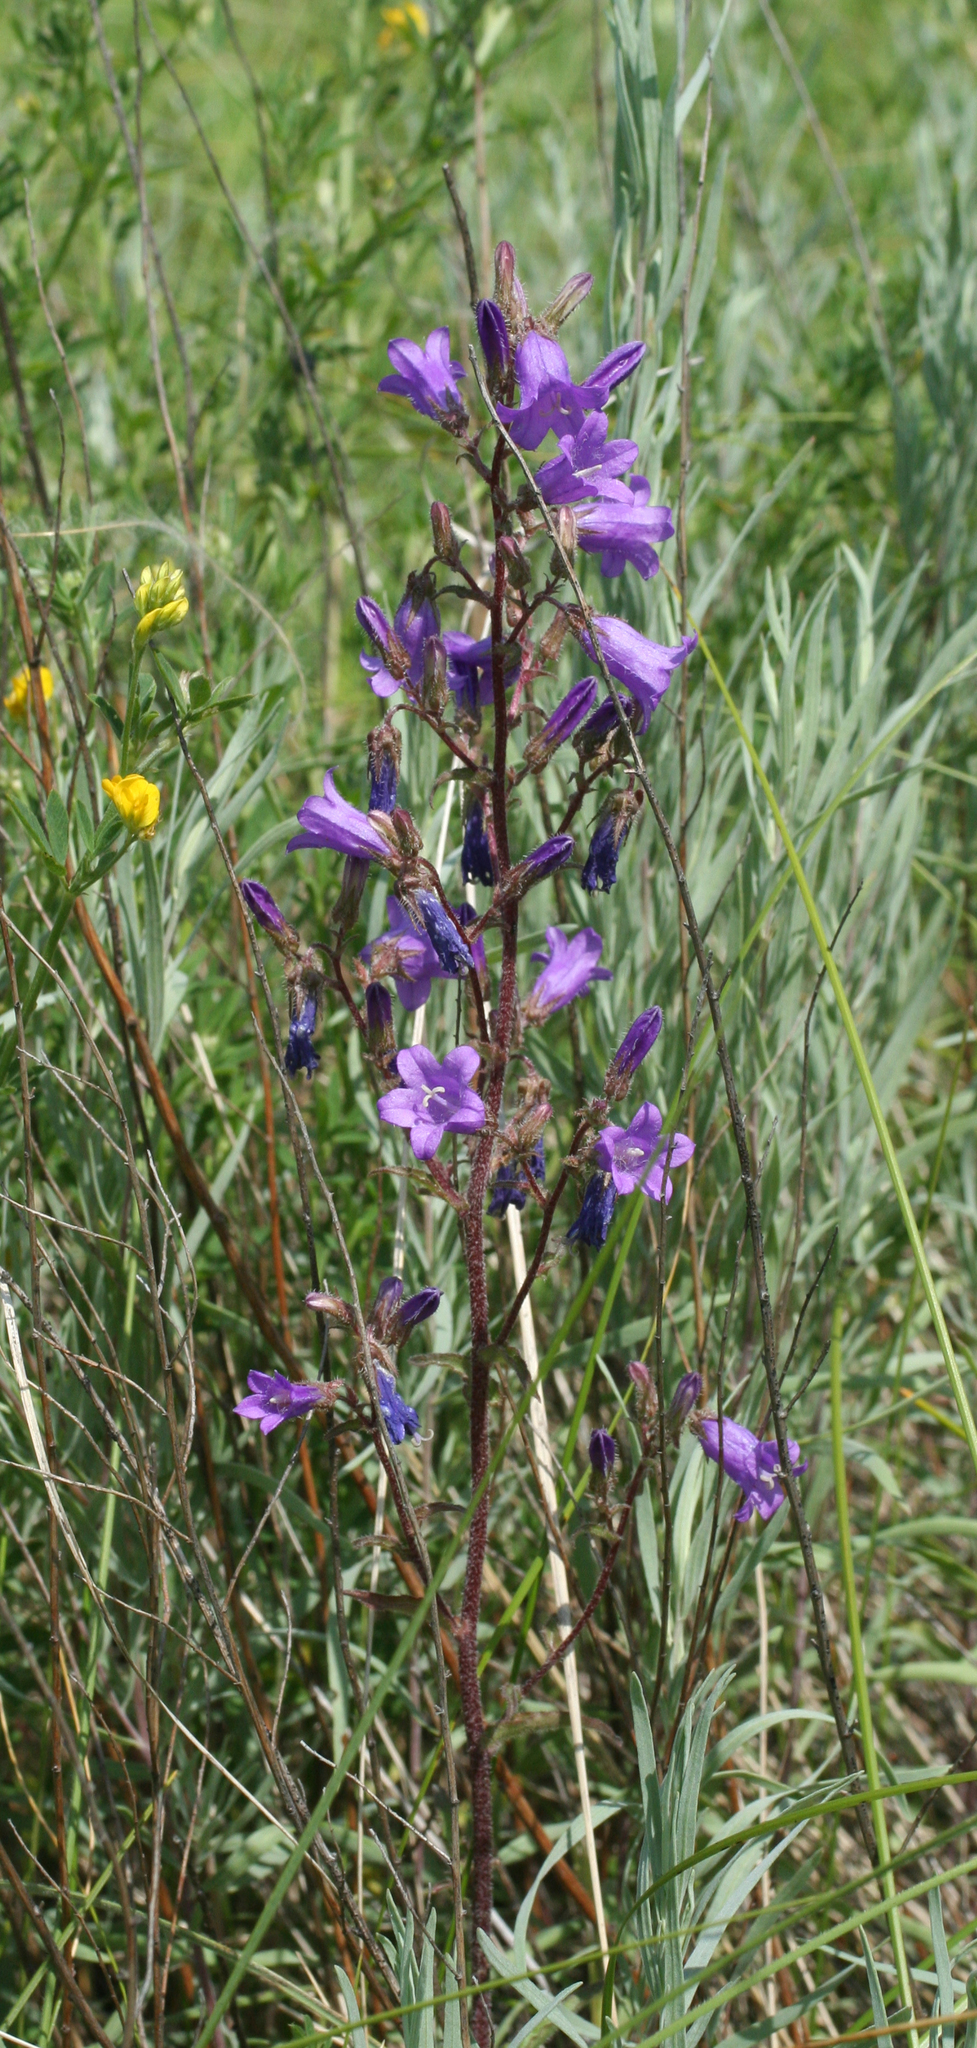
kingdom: Plantae
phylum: Tracheophyta
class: Magnoliopsida
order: Asterales
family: Campanulaceae
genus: Campanula
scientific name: Campanula sibirica
